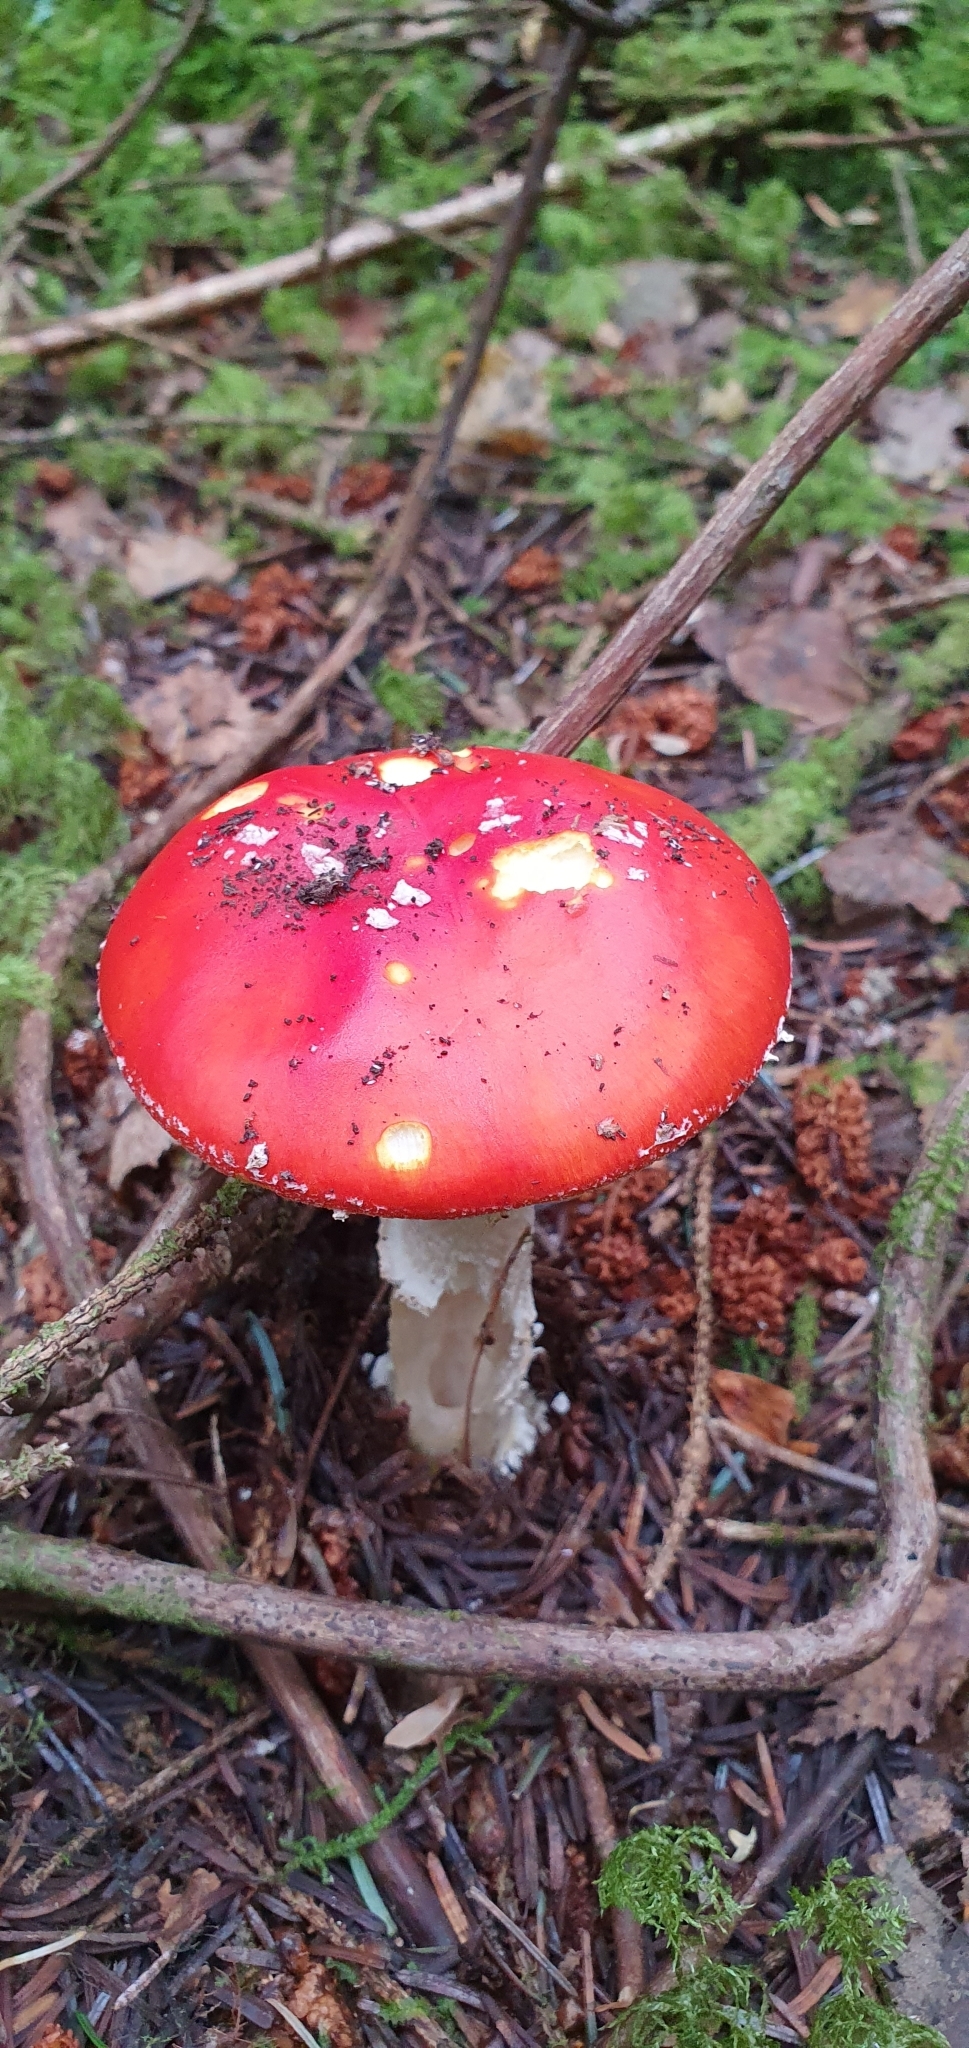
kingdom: Fungi
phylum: Basidiomycota
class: Agaricomycetes
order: Agaricales
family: Amanitaceae
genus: Amanita
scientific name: Amanita muscaria
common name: Fly agaric
